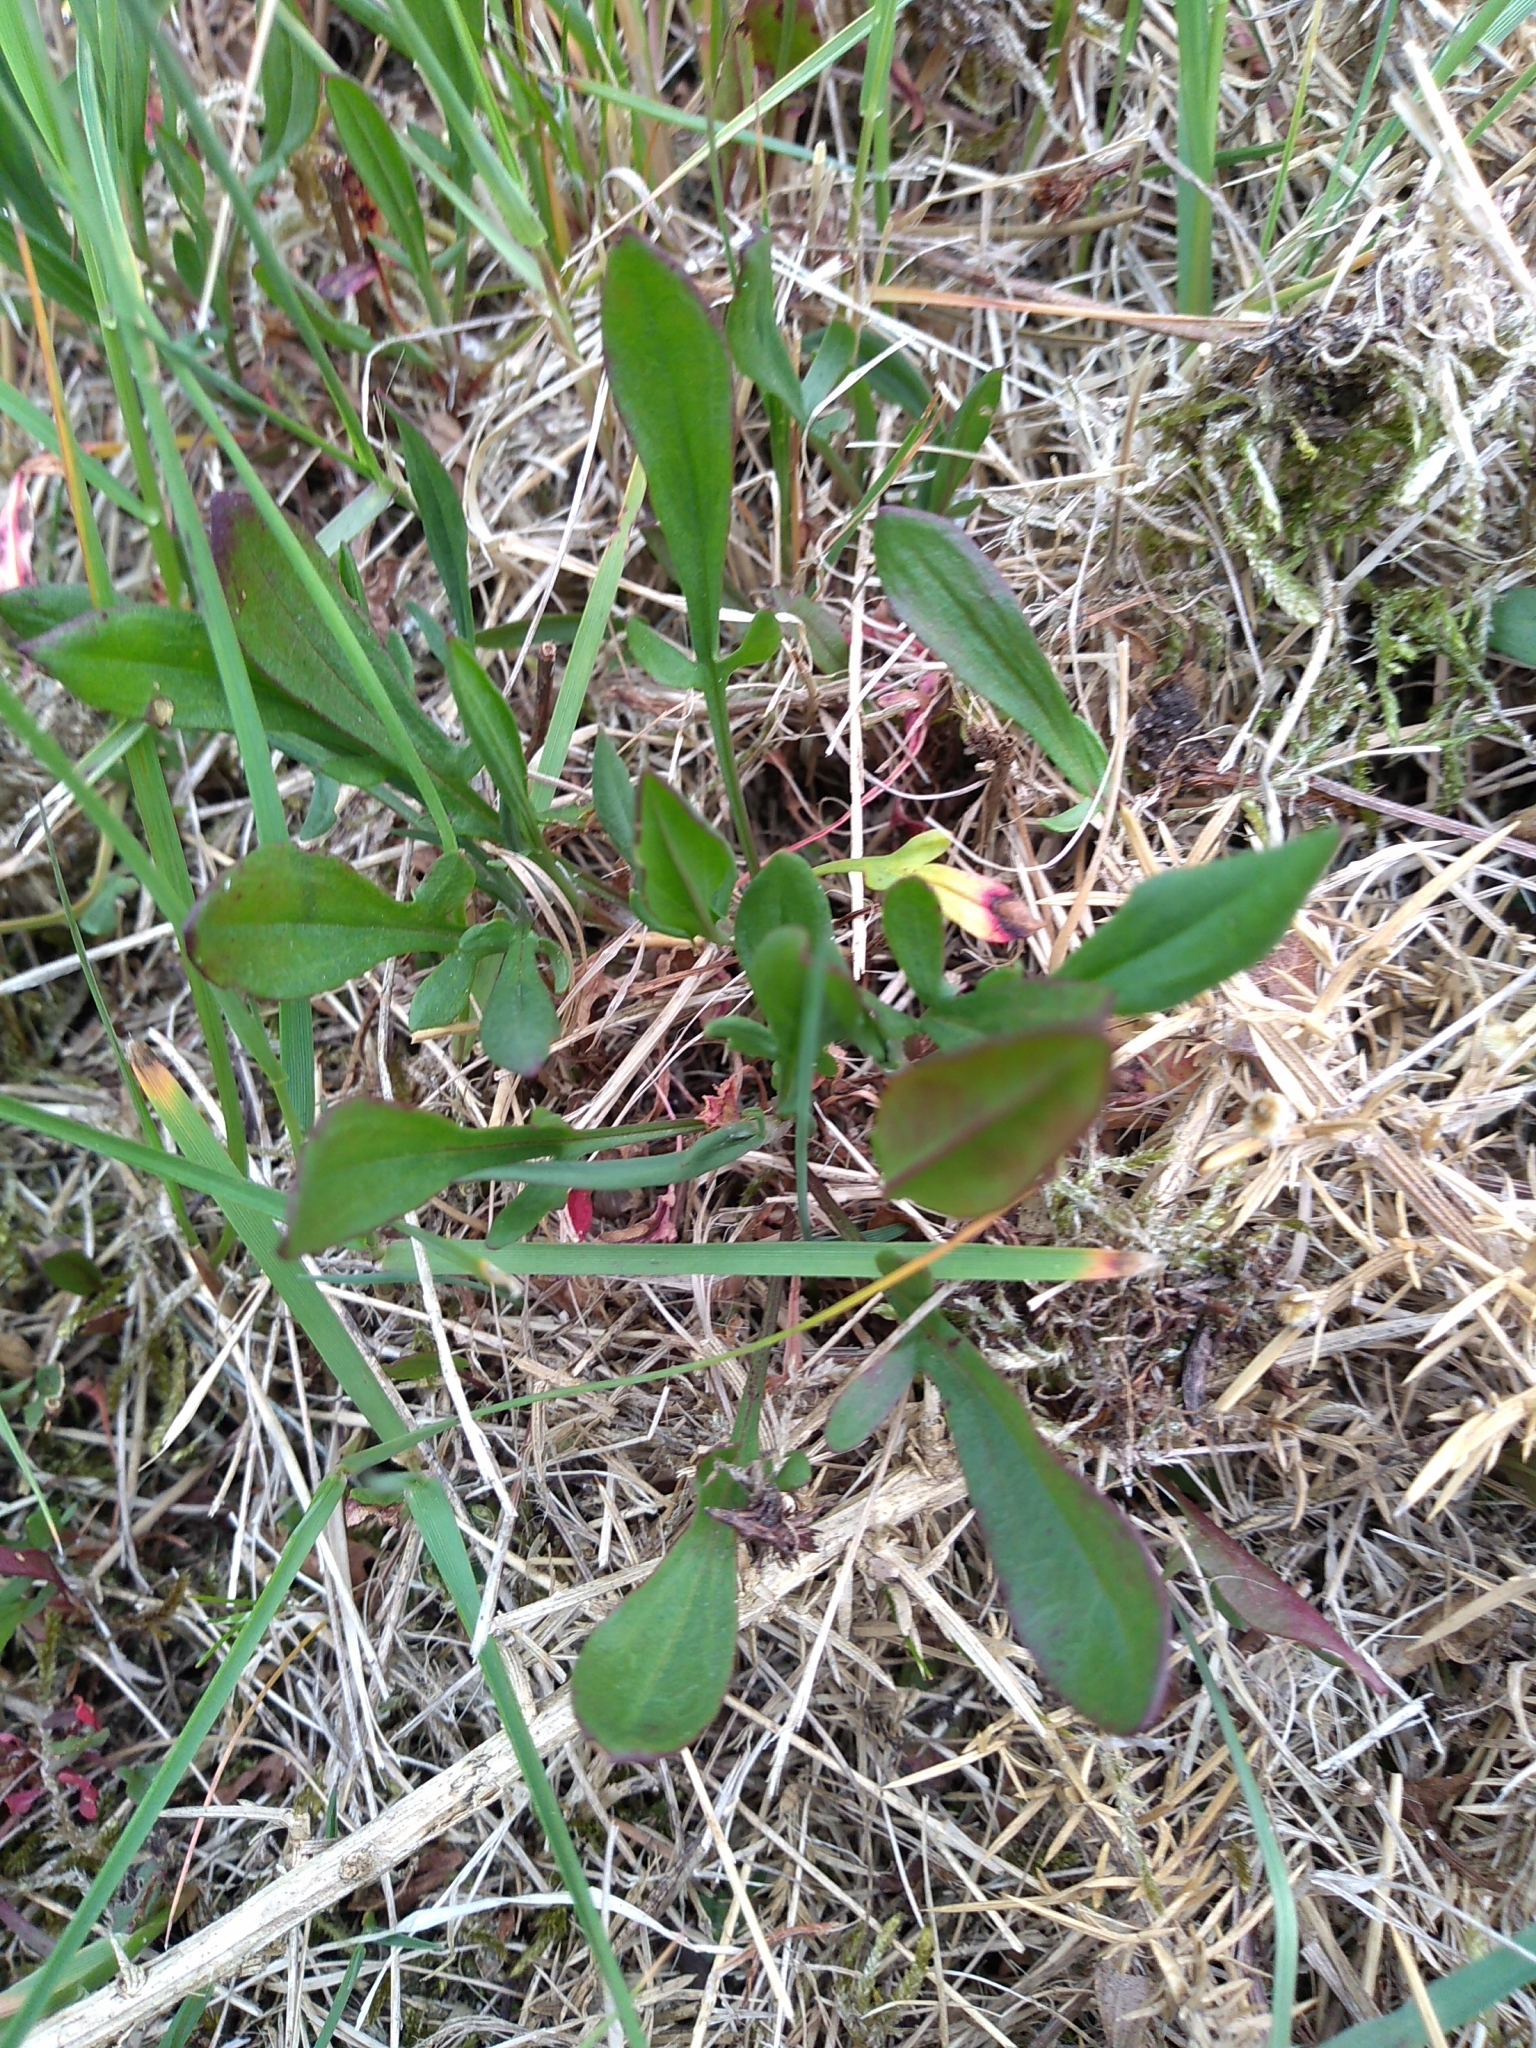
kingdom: Plantae
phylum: Tracheophyta
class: Magnoliopsida
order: Caryophyllales
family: Polygonaceae
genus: Rumex
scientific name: Rumex acetosella
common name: Common sheep sorrel
